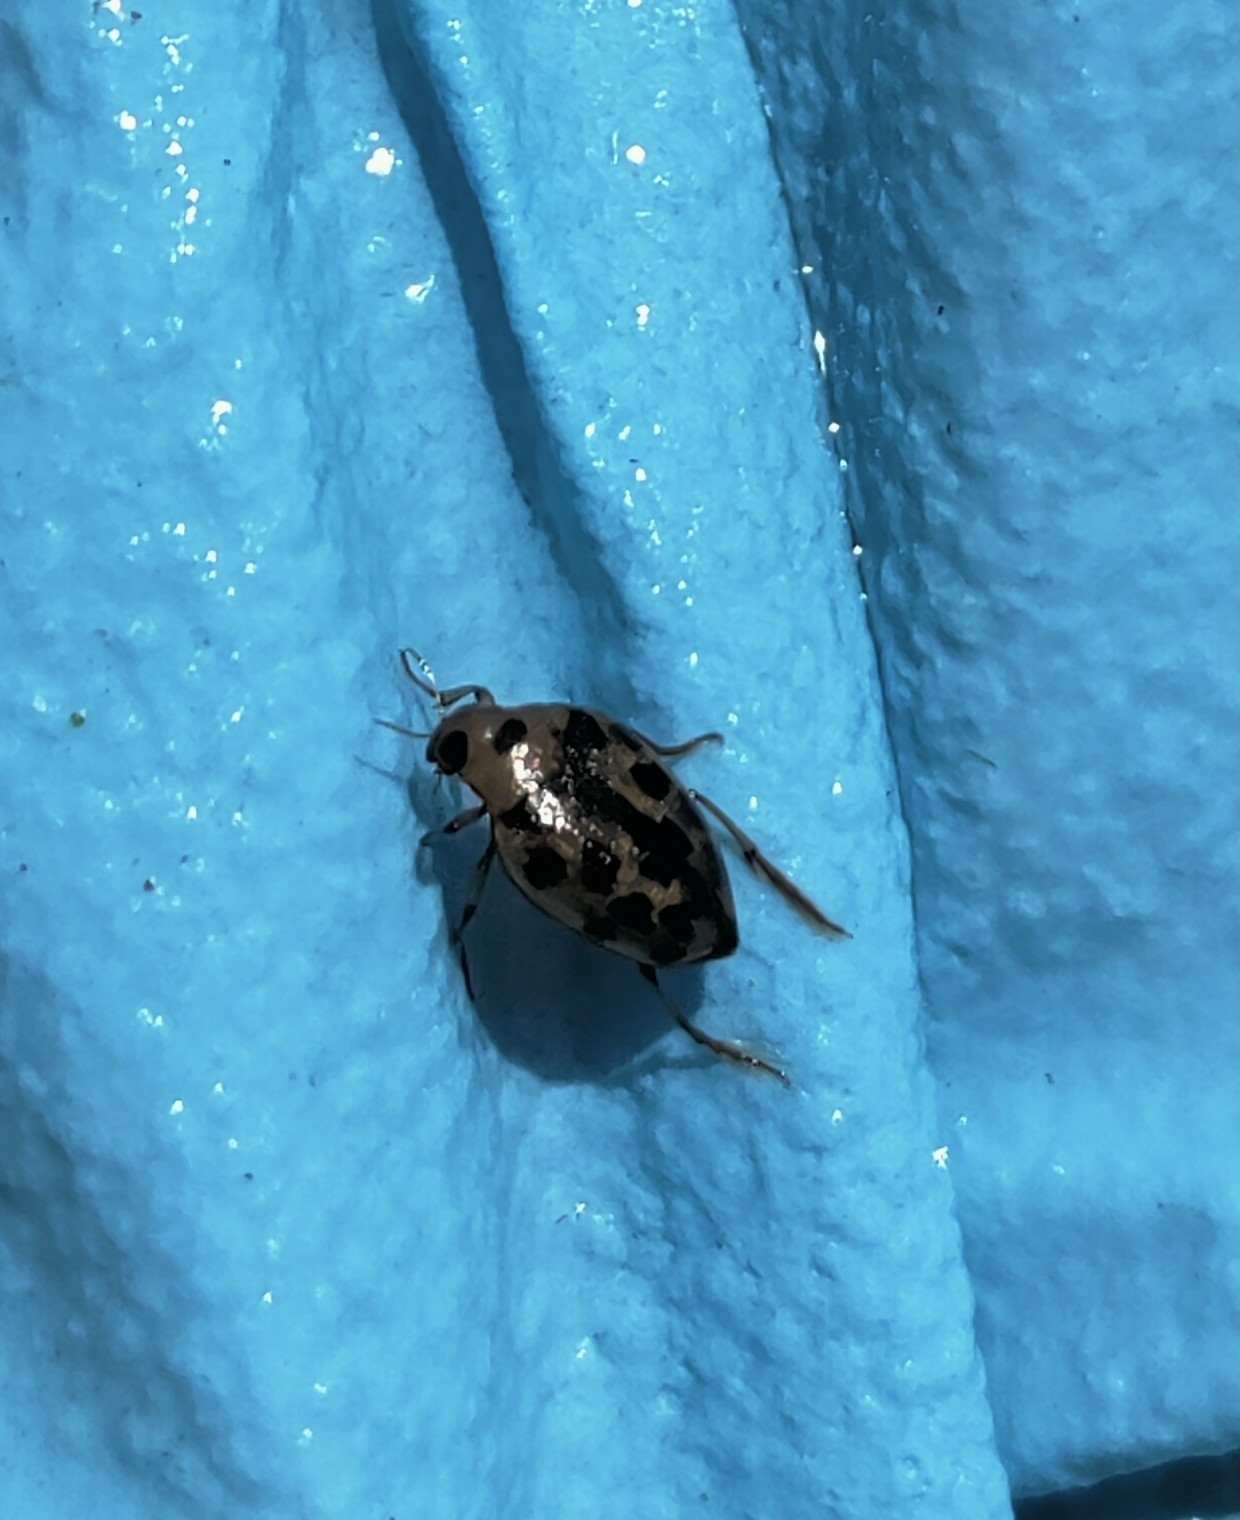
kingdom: Animalia
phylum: Arthropoda
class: Insecta
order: Coleoptera
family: Haliplidae
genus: Haliplus
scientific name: Haliplus
